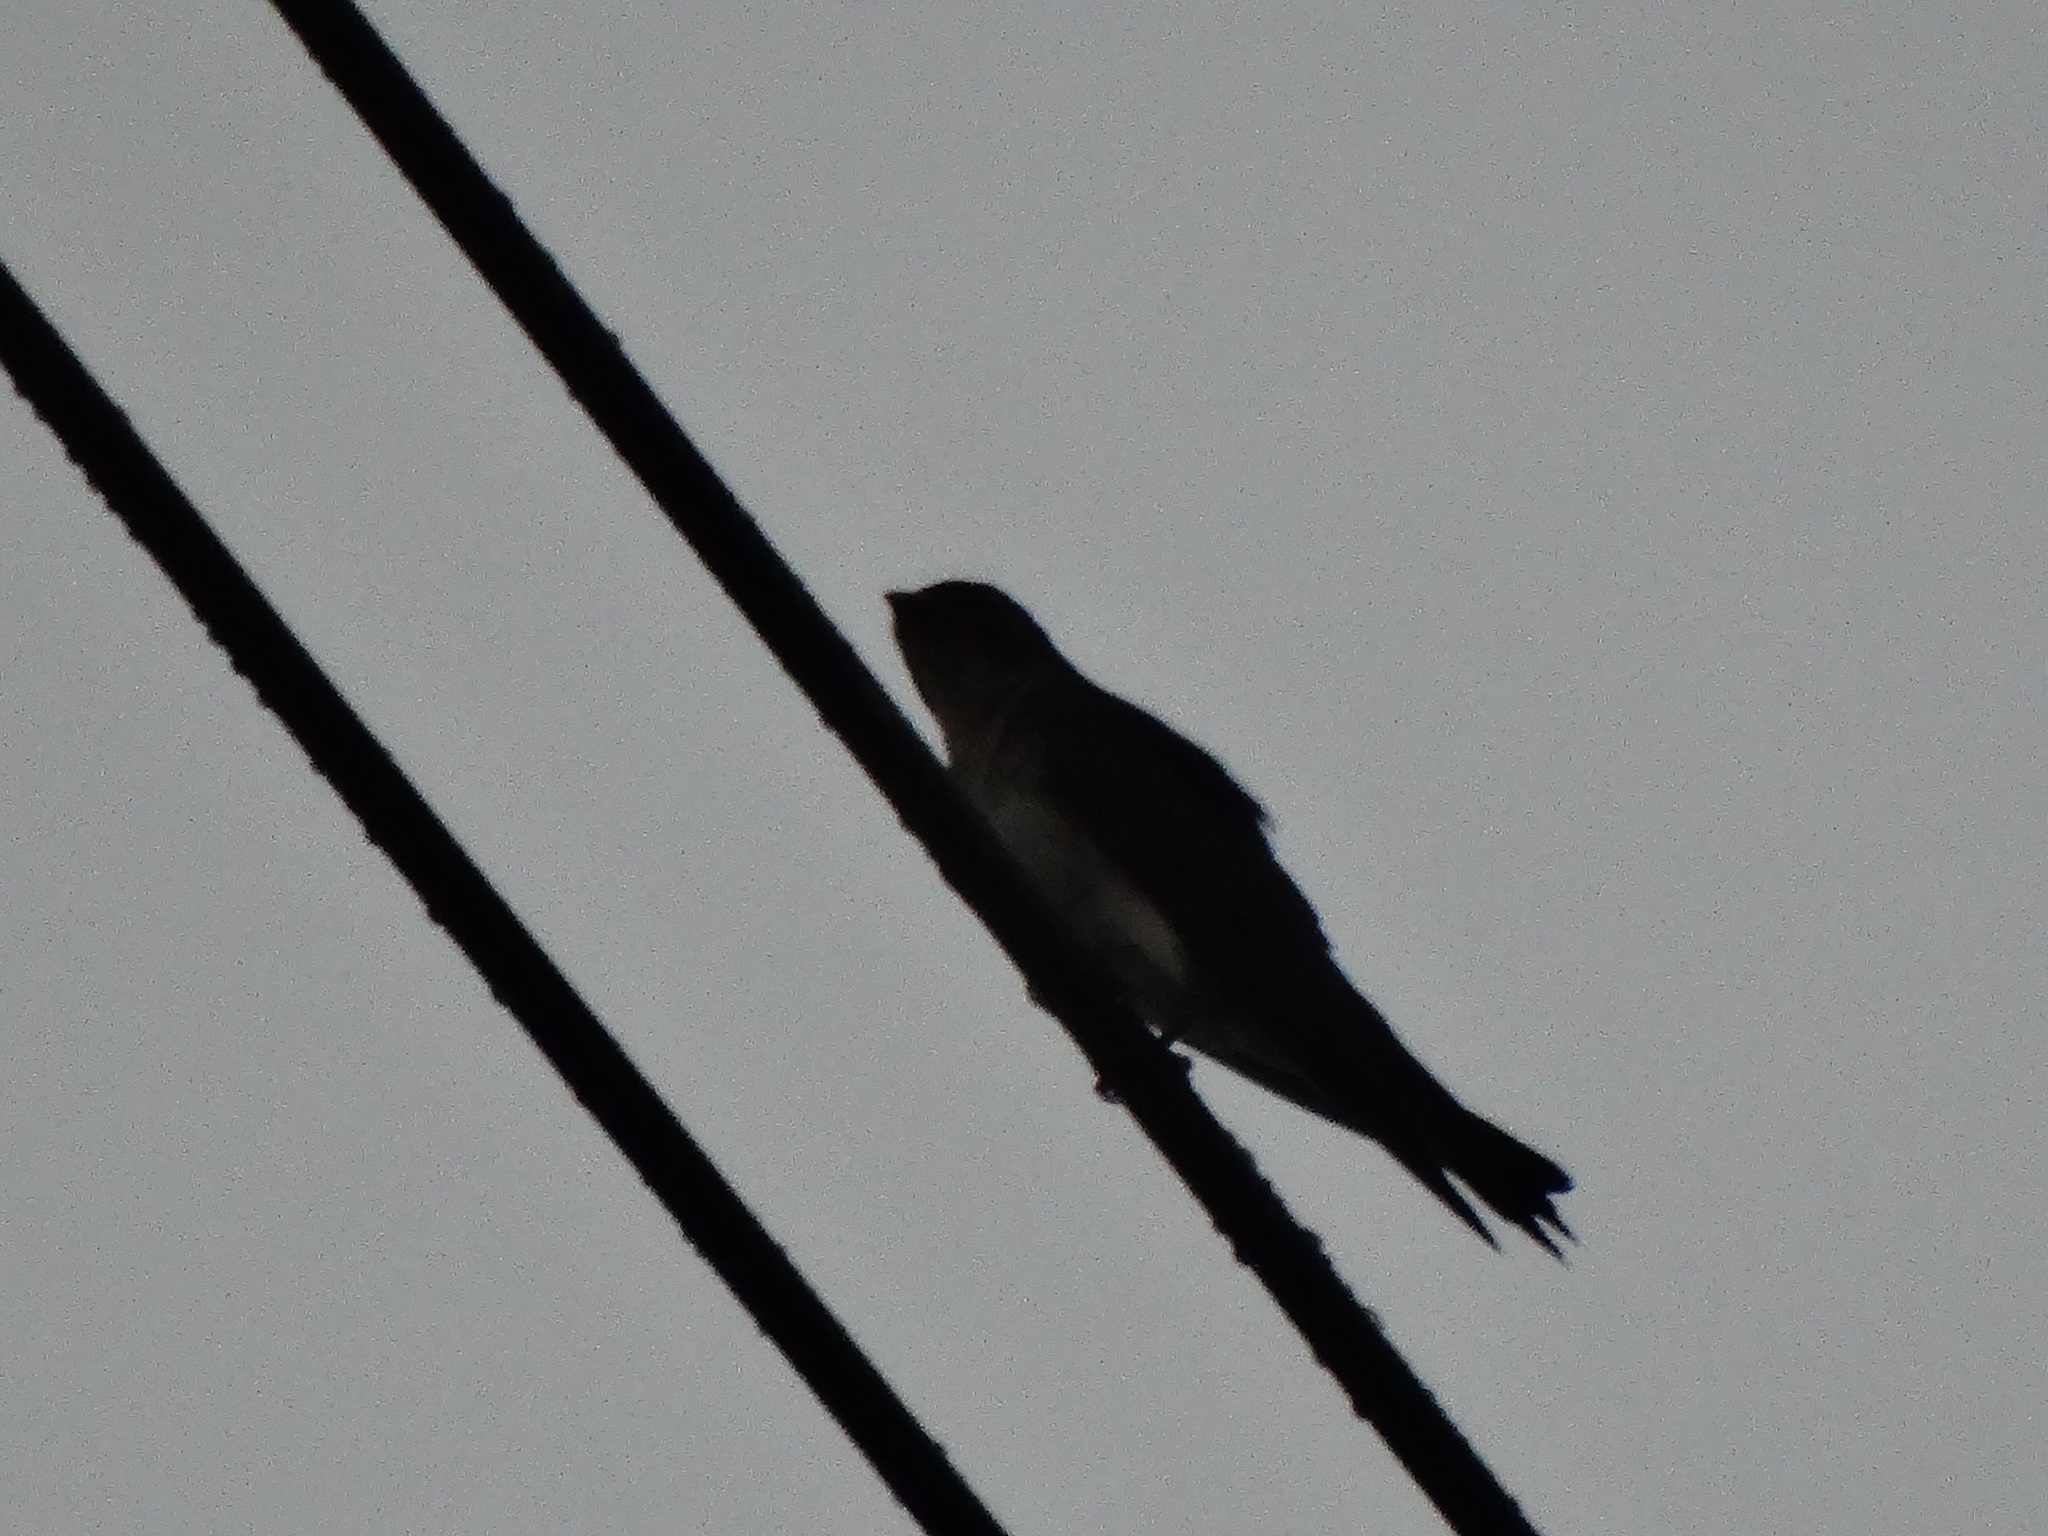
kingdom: Animalia
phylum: Chordata
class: Aves
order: Passeriformes
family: Hirundinidae
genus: Progne
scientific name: Progne chalybea
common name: Grey-breasted martin
